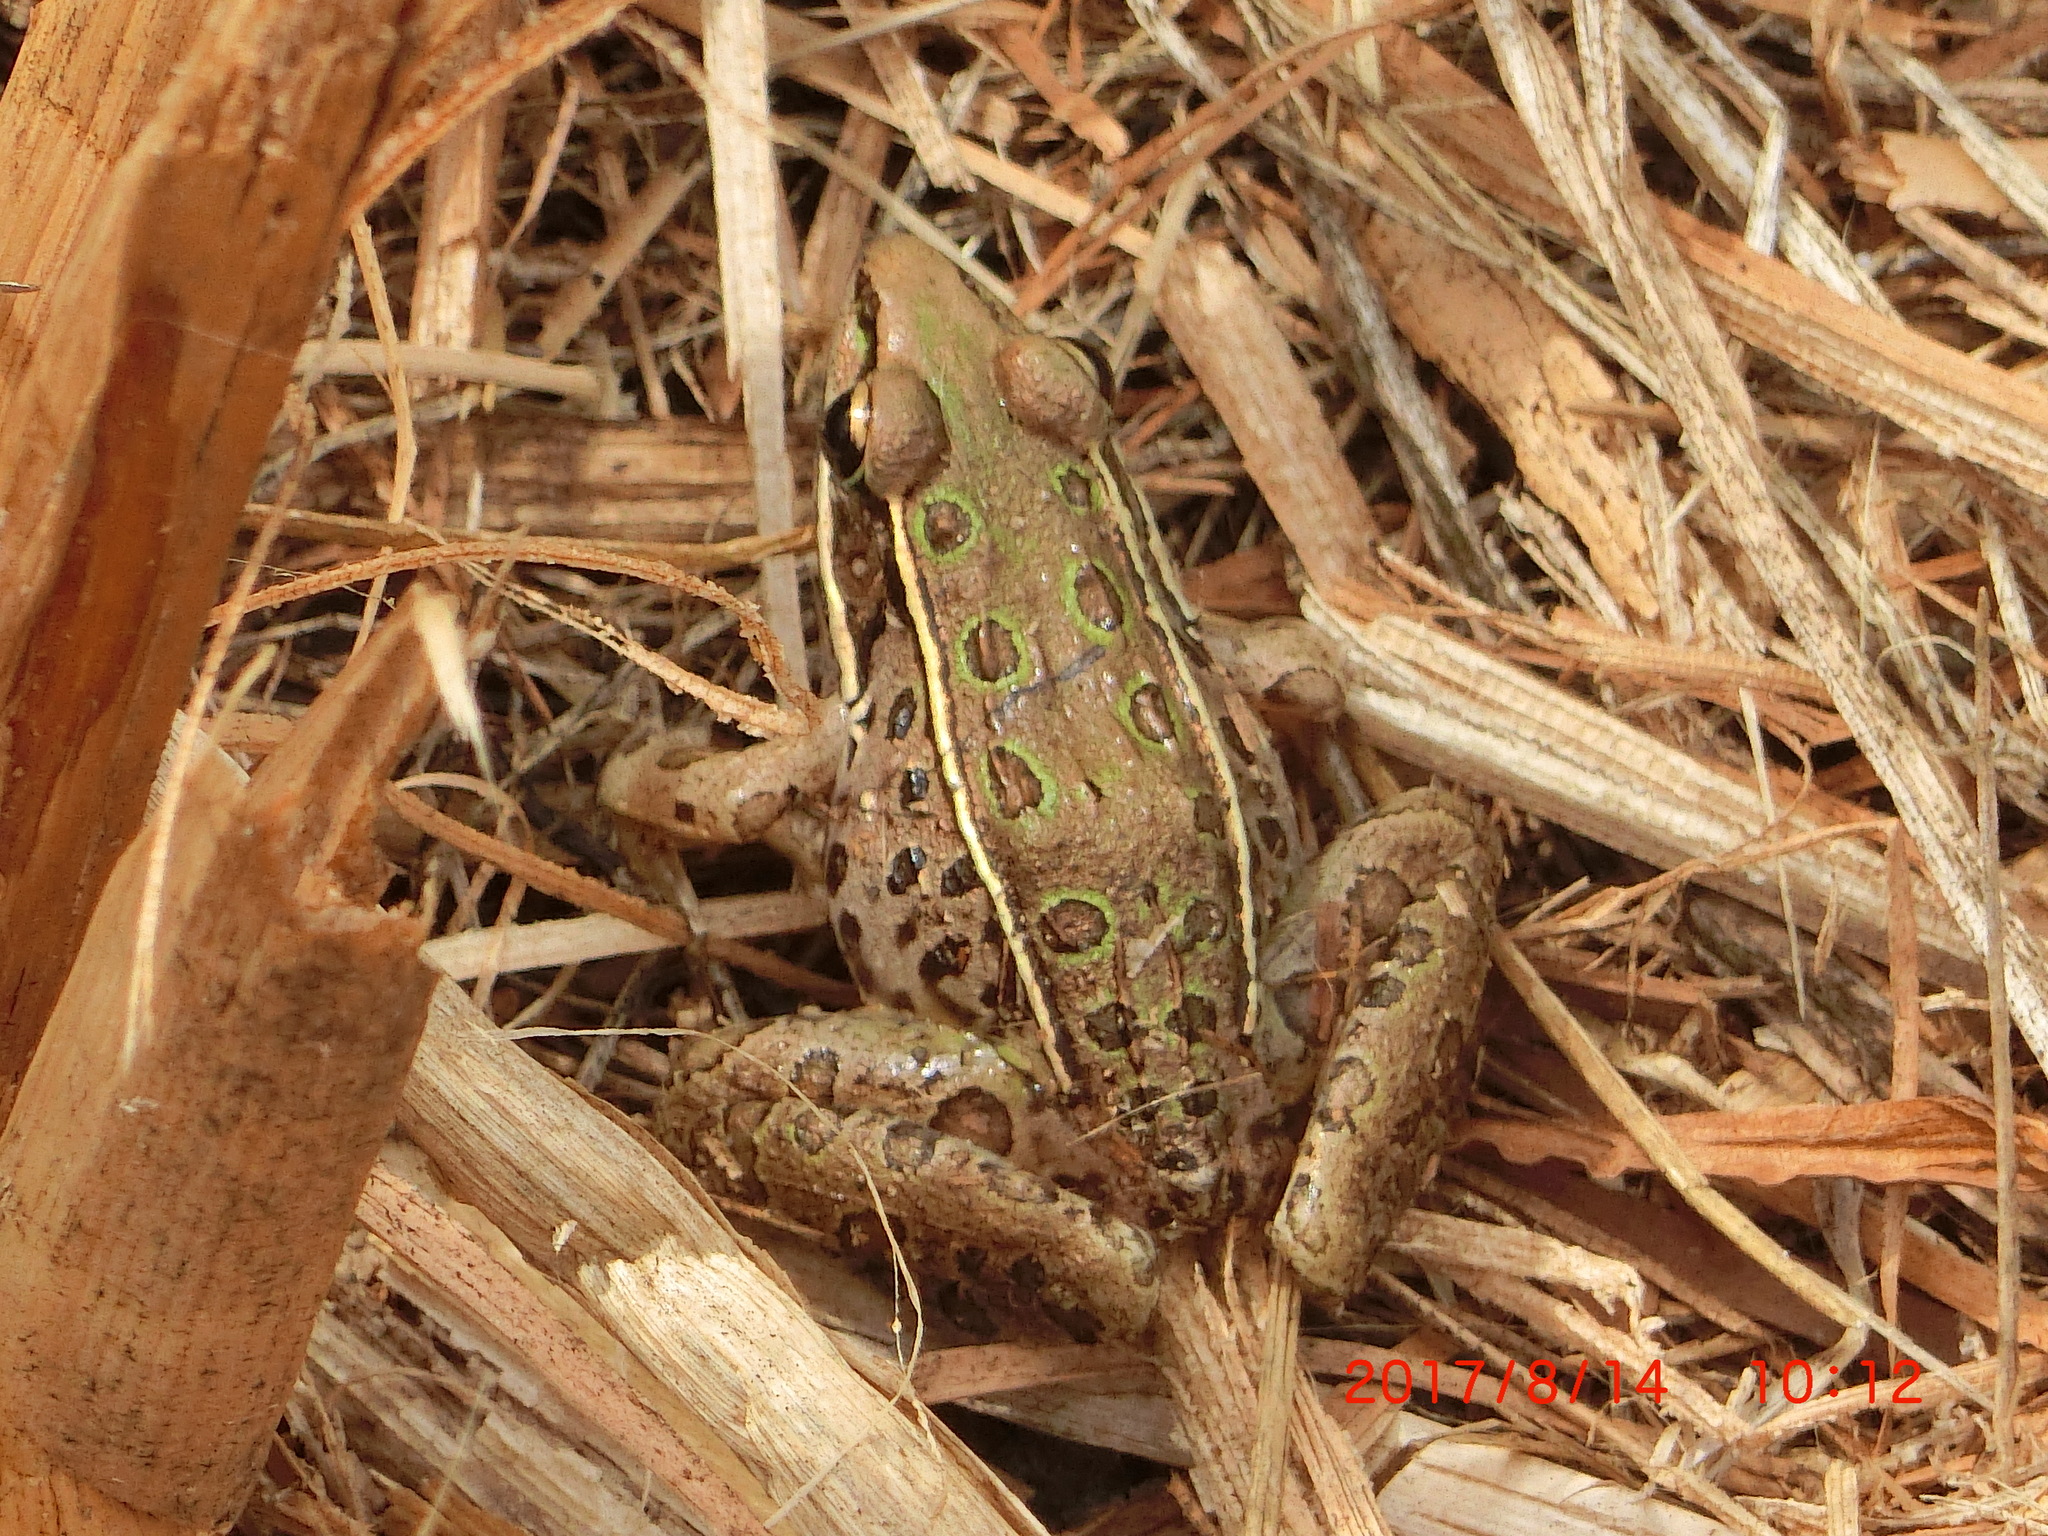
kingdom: Animalia
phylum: Chordata
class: Amphibia
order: Anura
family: Ranidae
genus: Lithobates
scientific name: Lithobates sphenocephalus
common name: Southern leopard frog
